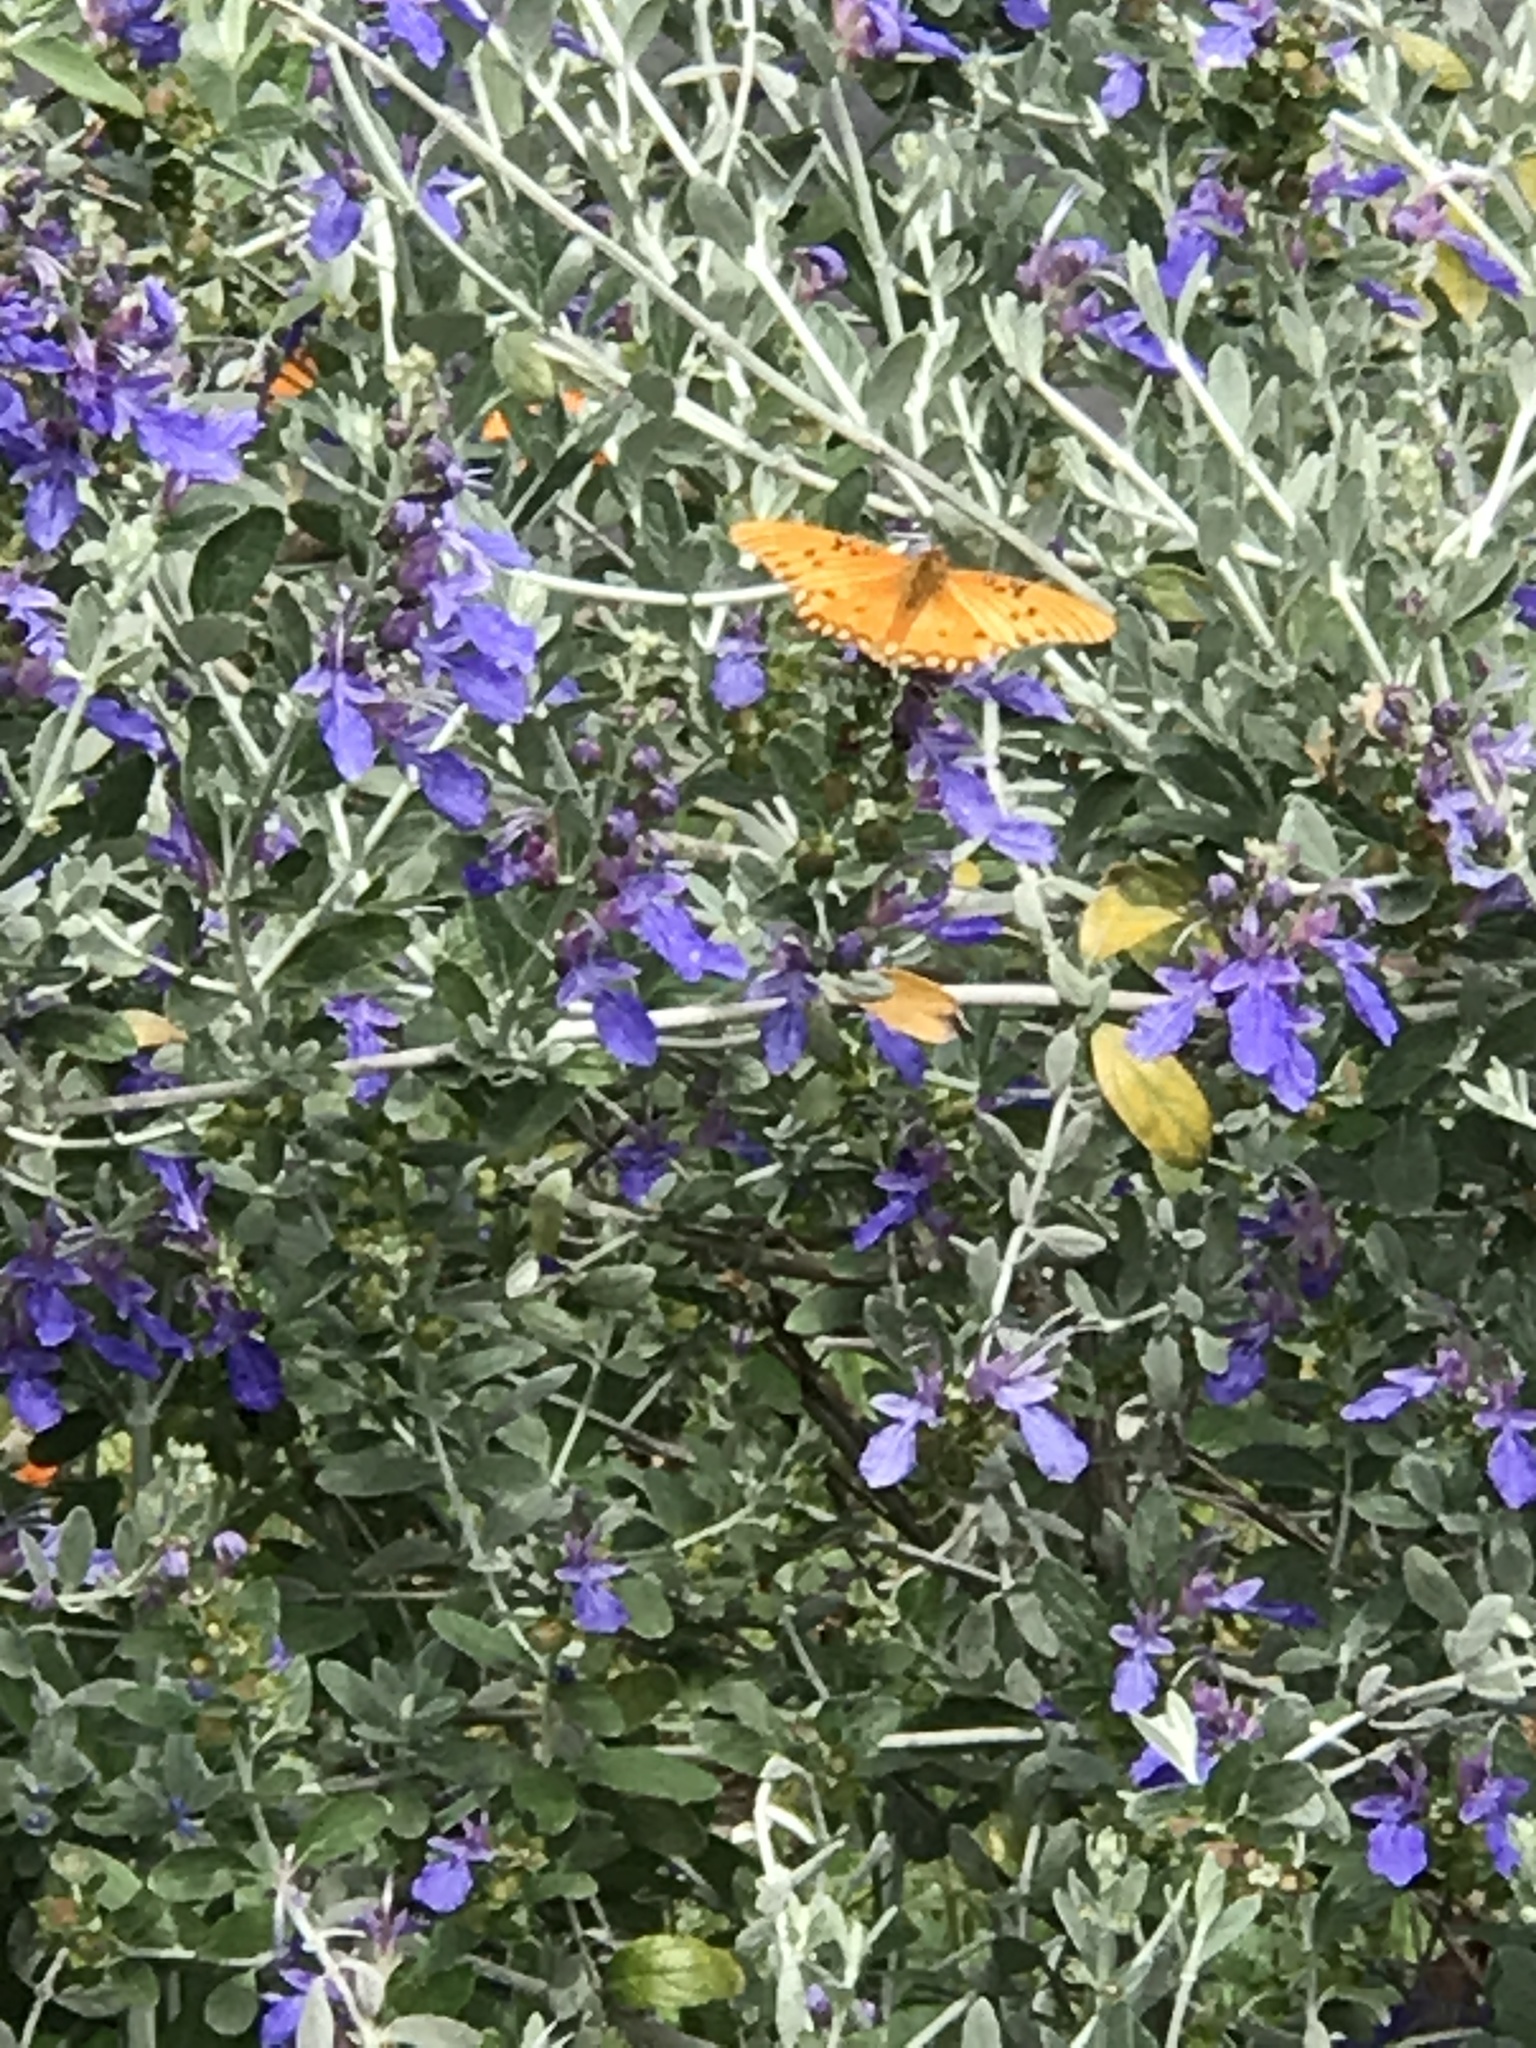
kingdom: Animalia
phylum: Arthropoda
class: Insecta
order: Lepidoptera
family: Nymphalidae
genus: Dione
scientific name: Dione vanillae
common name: Gulf fritillary
